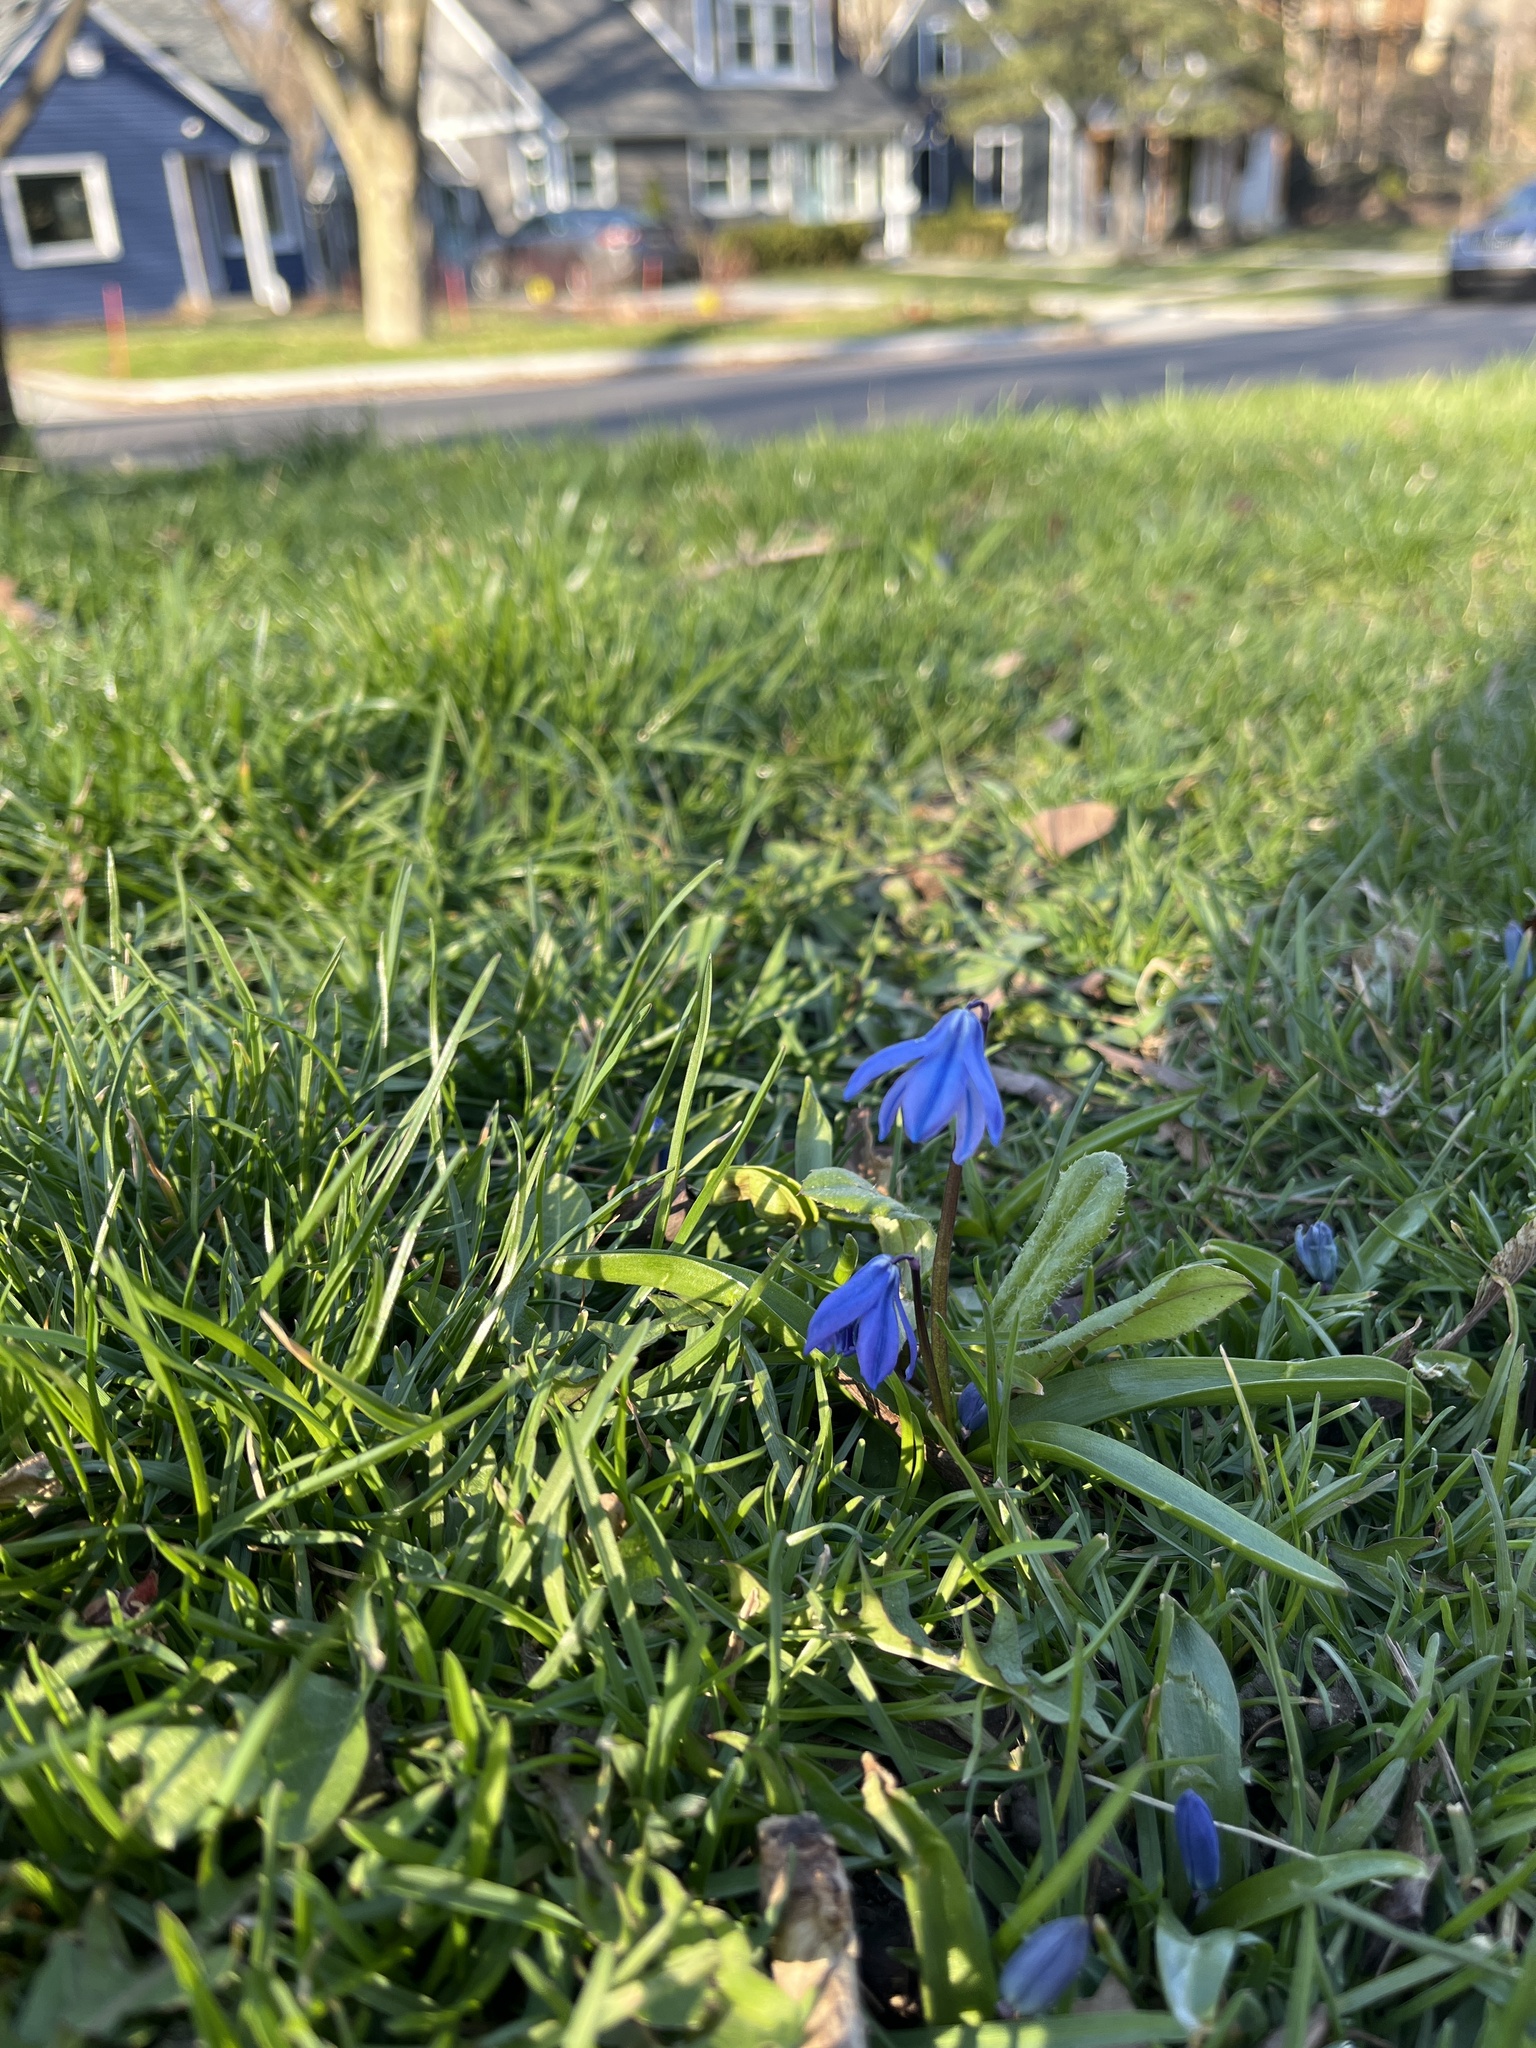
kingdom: Plantae
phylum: Tracheophyta
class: Liliopsida
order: Asparagales
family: Asparagaceae
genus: Scilla
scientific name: Scilla siberica
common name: Siberian squill
